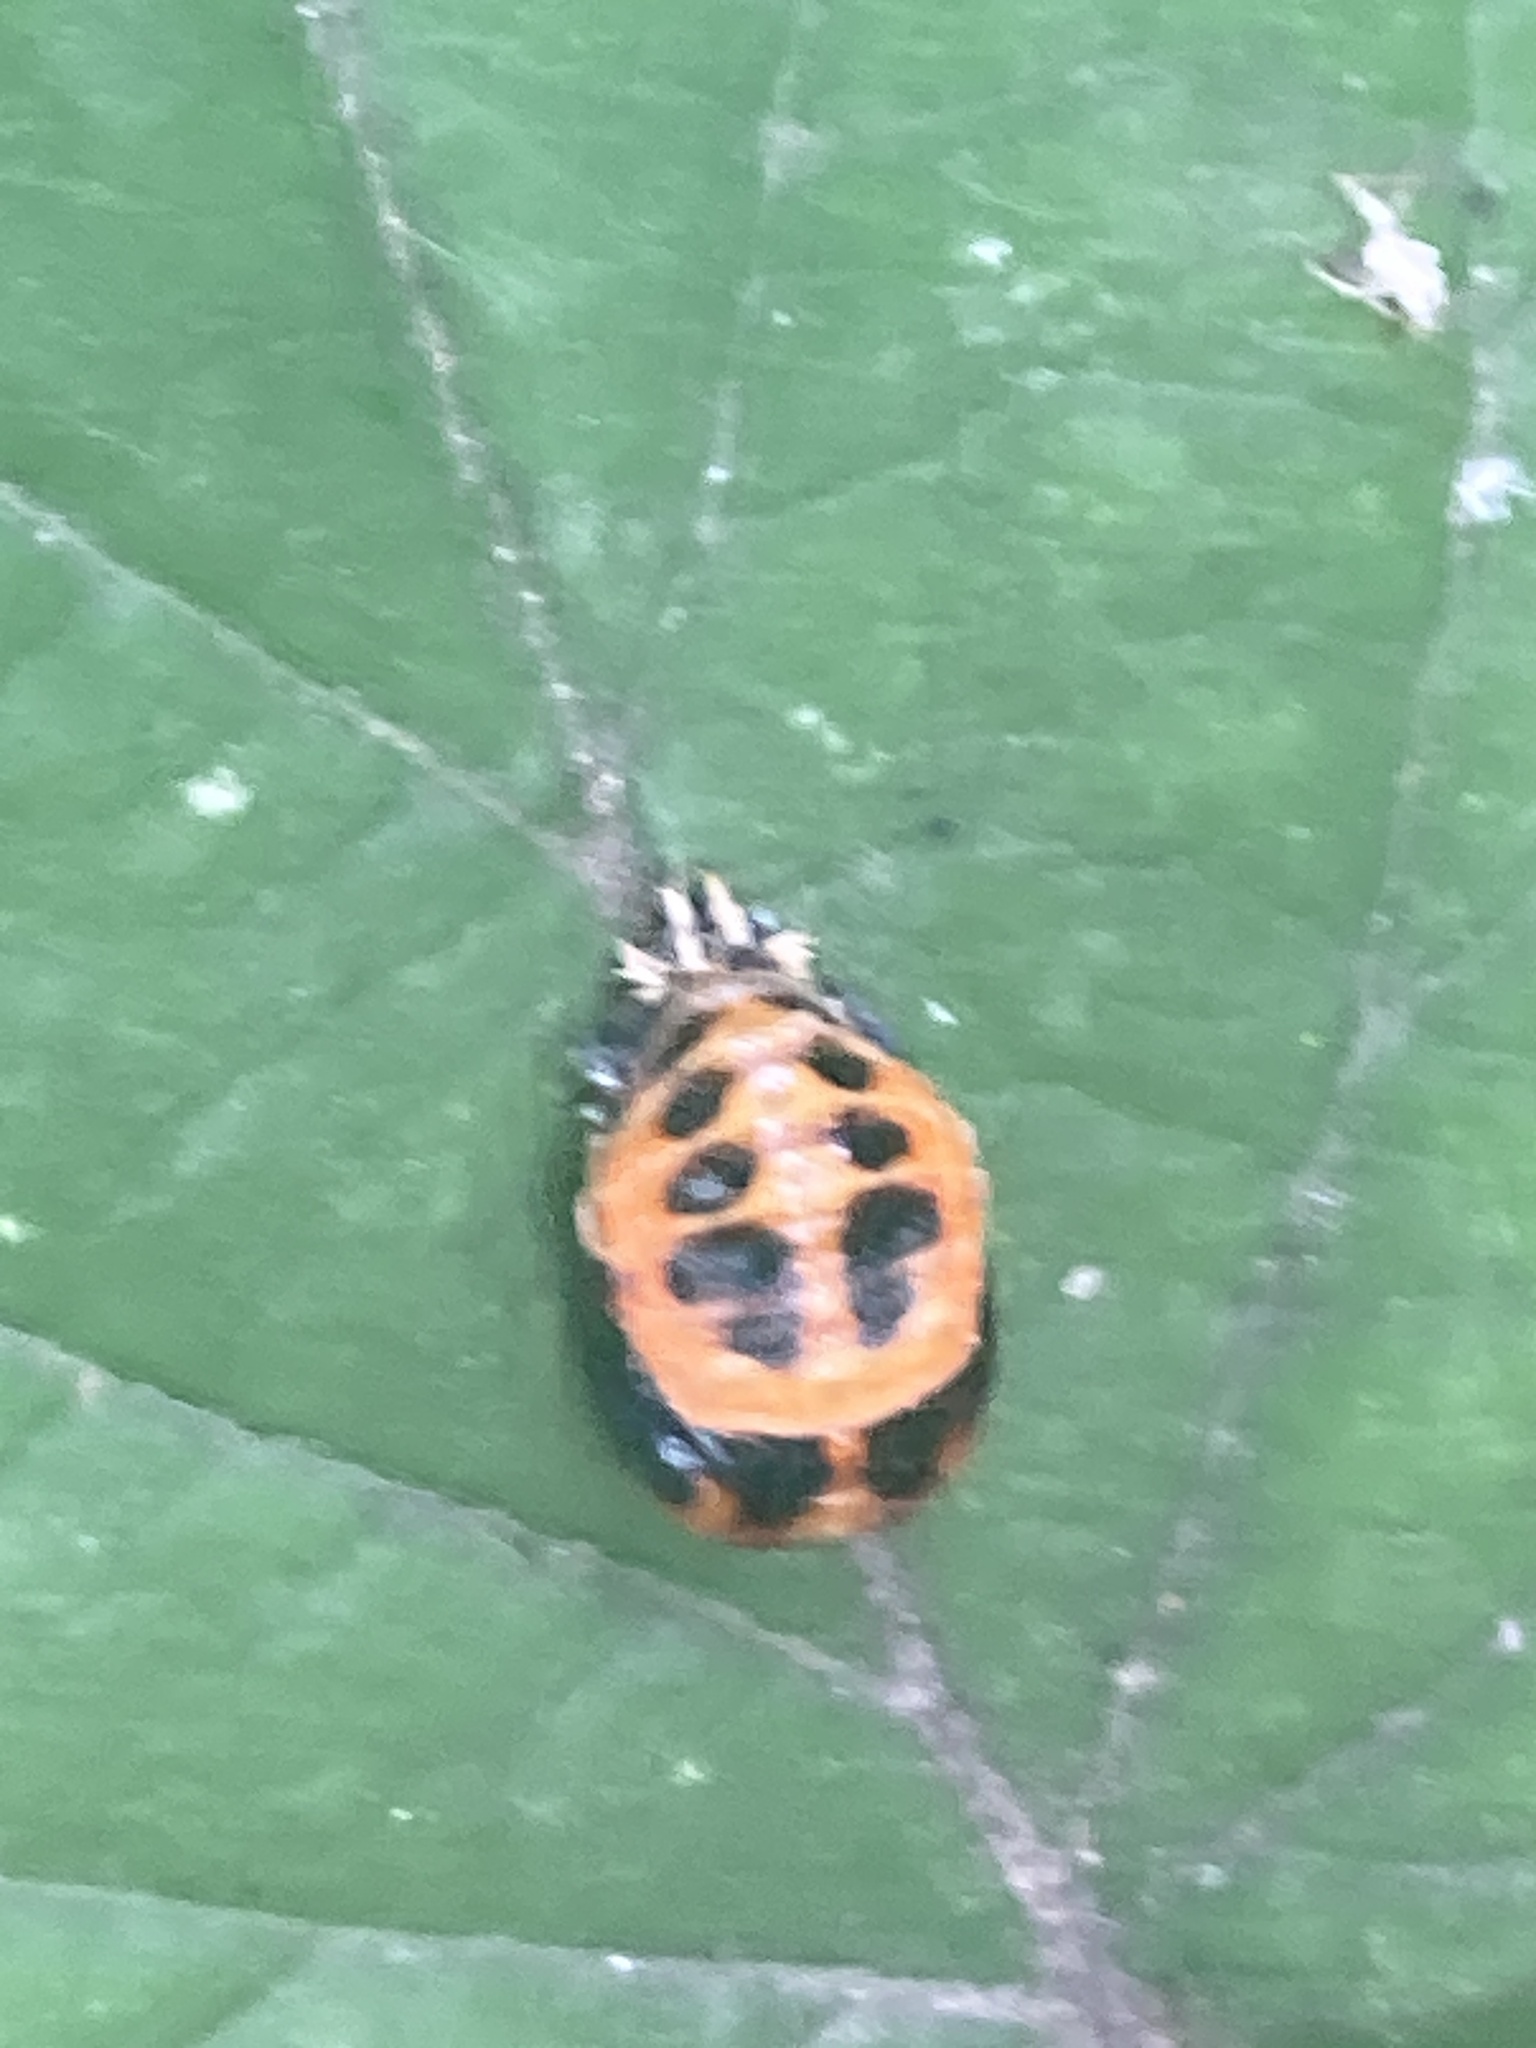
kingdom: Animalia
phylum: Arthropoda
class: Insecta
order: Coleoptera
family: Coccinellidae
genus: Harmonia
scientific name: Harmonia axyridis
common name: Harlequin ladybird
